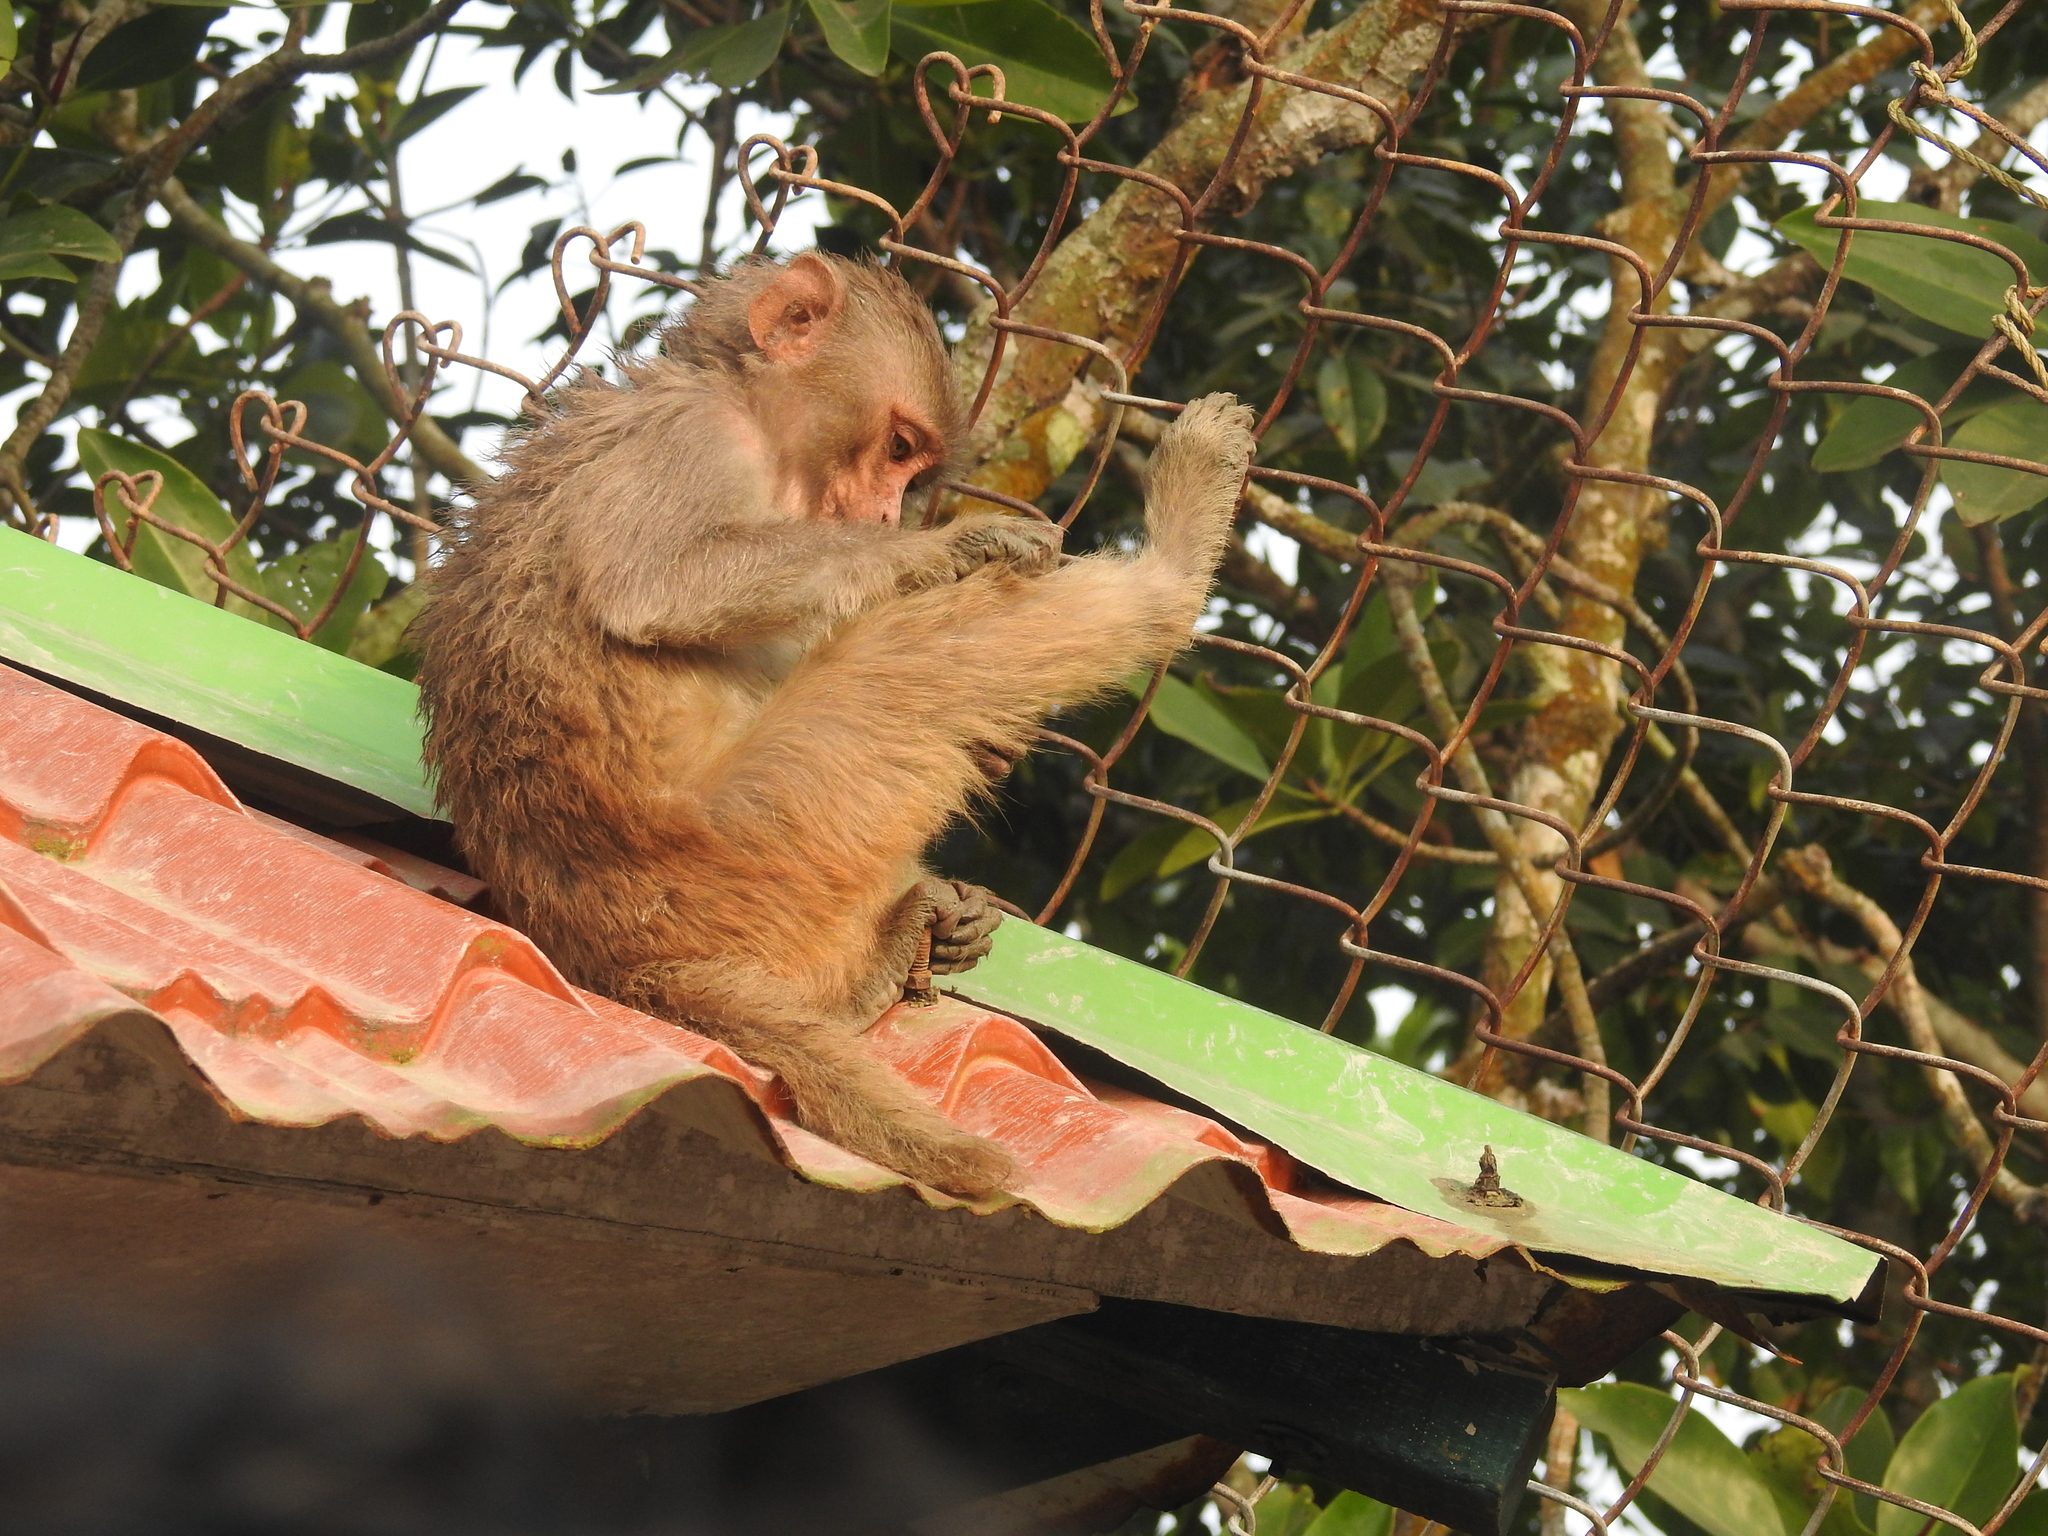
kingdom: Animalia
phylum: Chordata
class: Mammalia
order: Primates
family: Cercopithecidae
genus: Macaca
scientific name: Macaca mulatta
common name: Rhesus monkey
